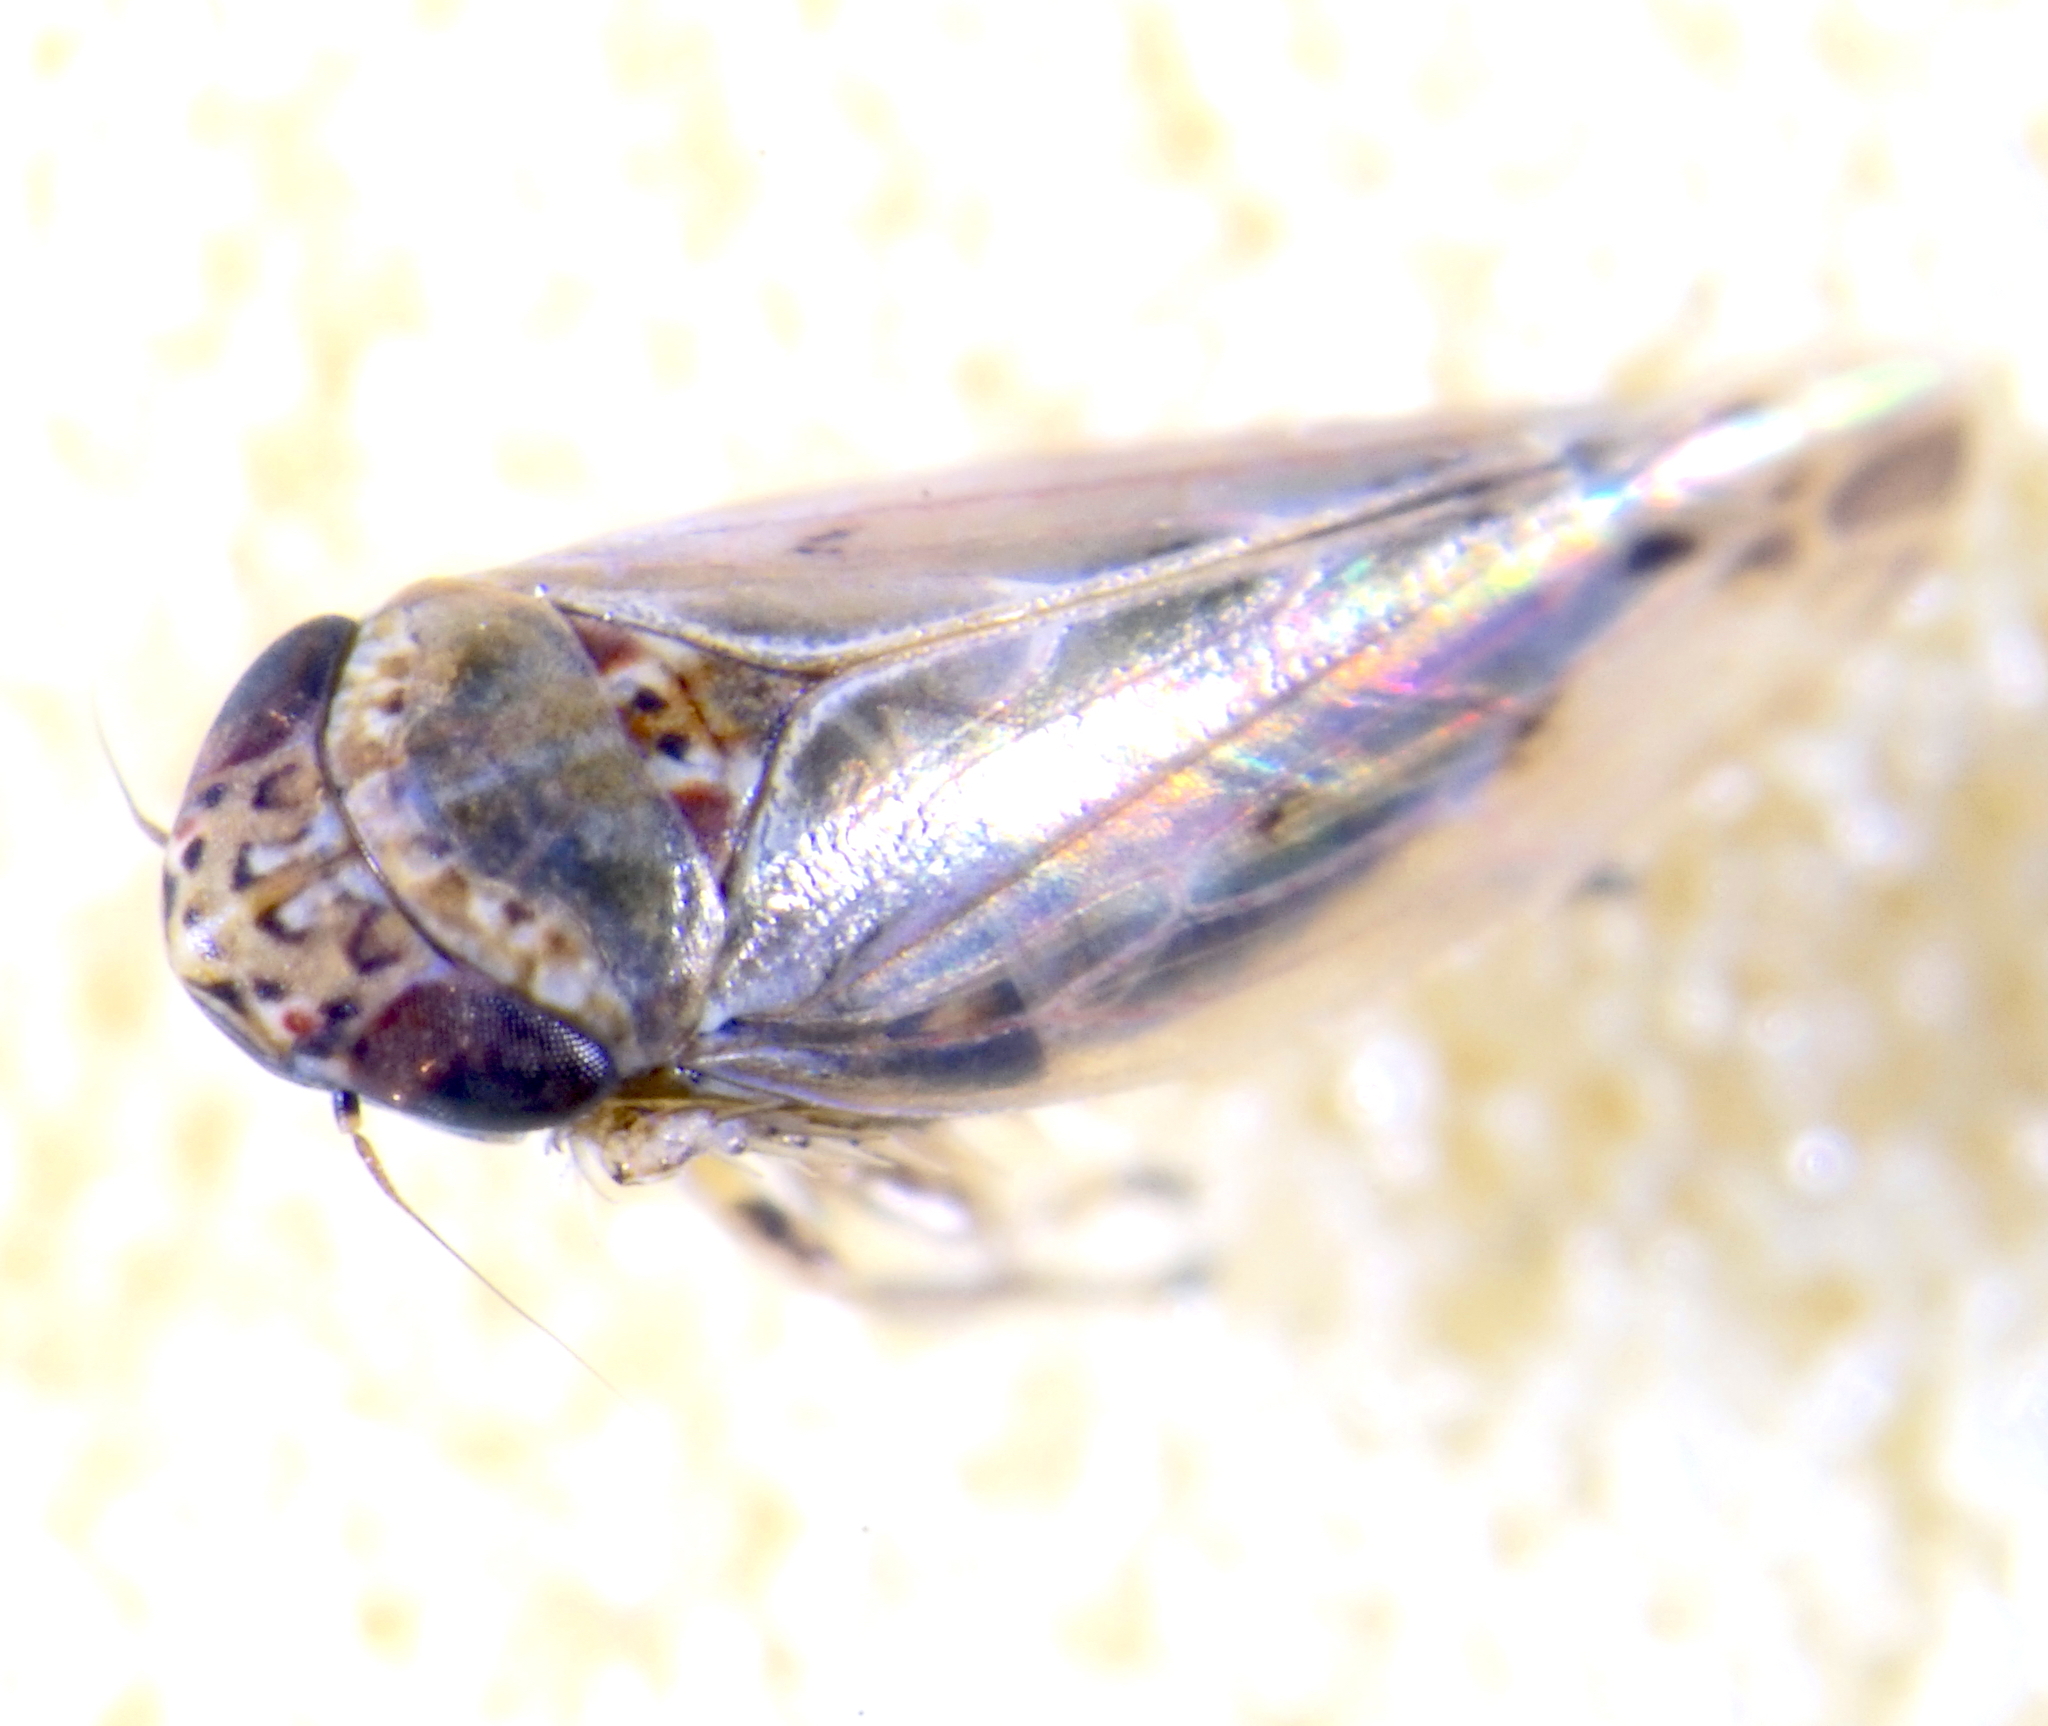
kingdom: Animalia
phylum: Arthropoda
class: Insecta
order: Hemiptera
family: Cicadellidae
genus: Hardya
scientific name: Hardya tenuis
